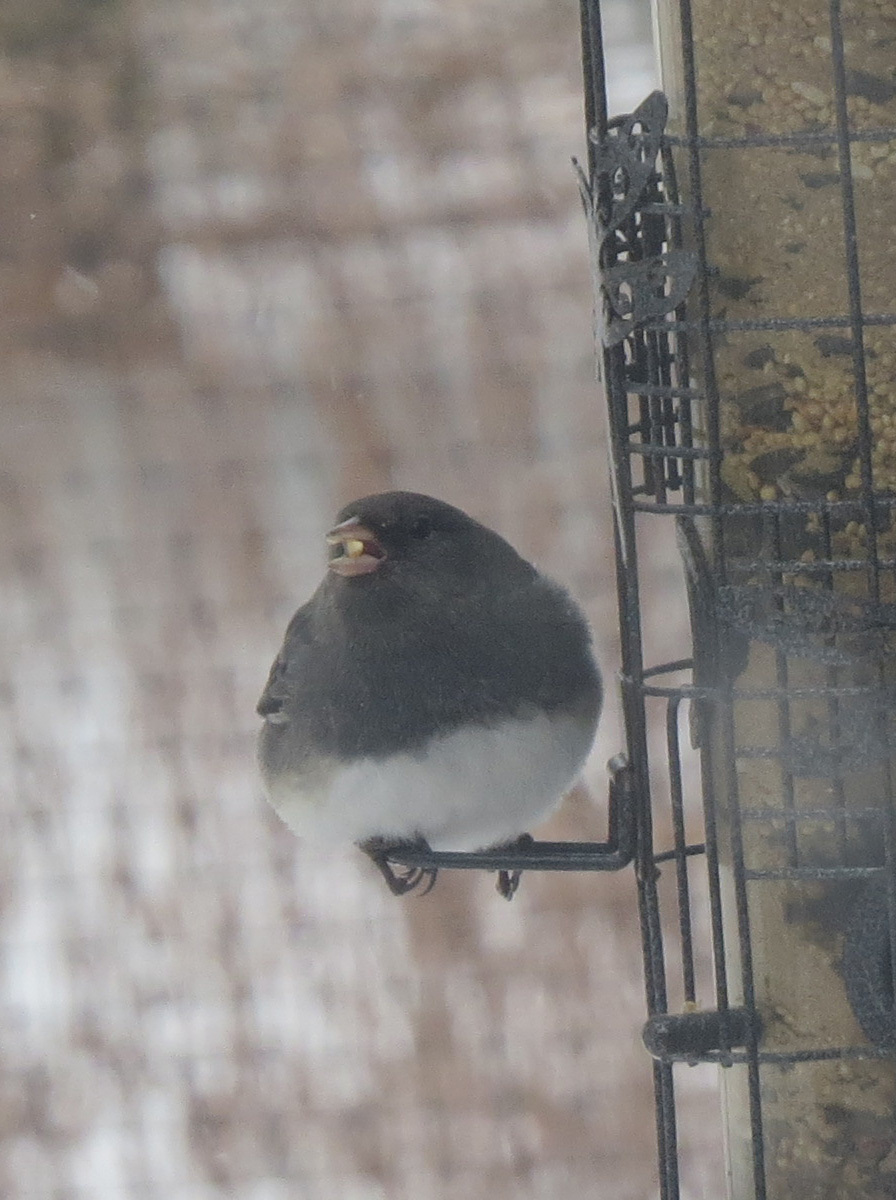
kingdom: Animalia
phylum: Chordata
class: Aves
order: Passeriformes
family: Passerellidae
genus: Junco
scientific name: Junco hyemalis
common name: Dark-eyed junco
